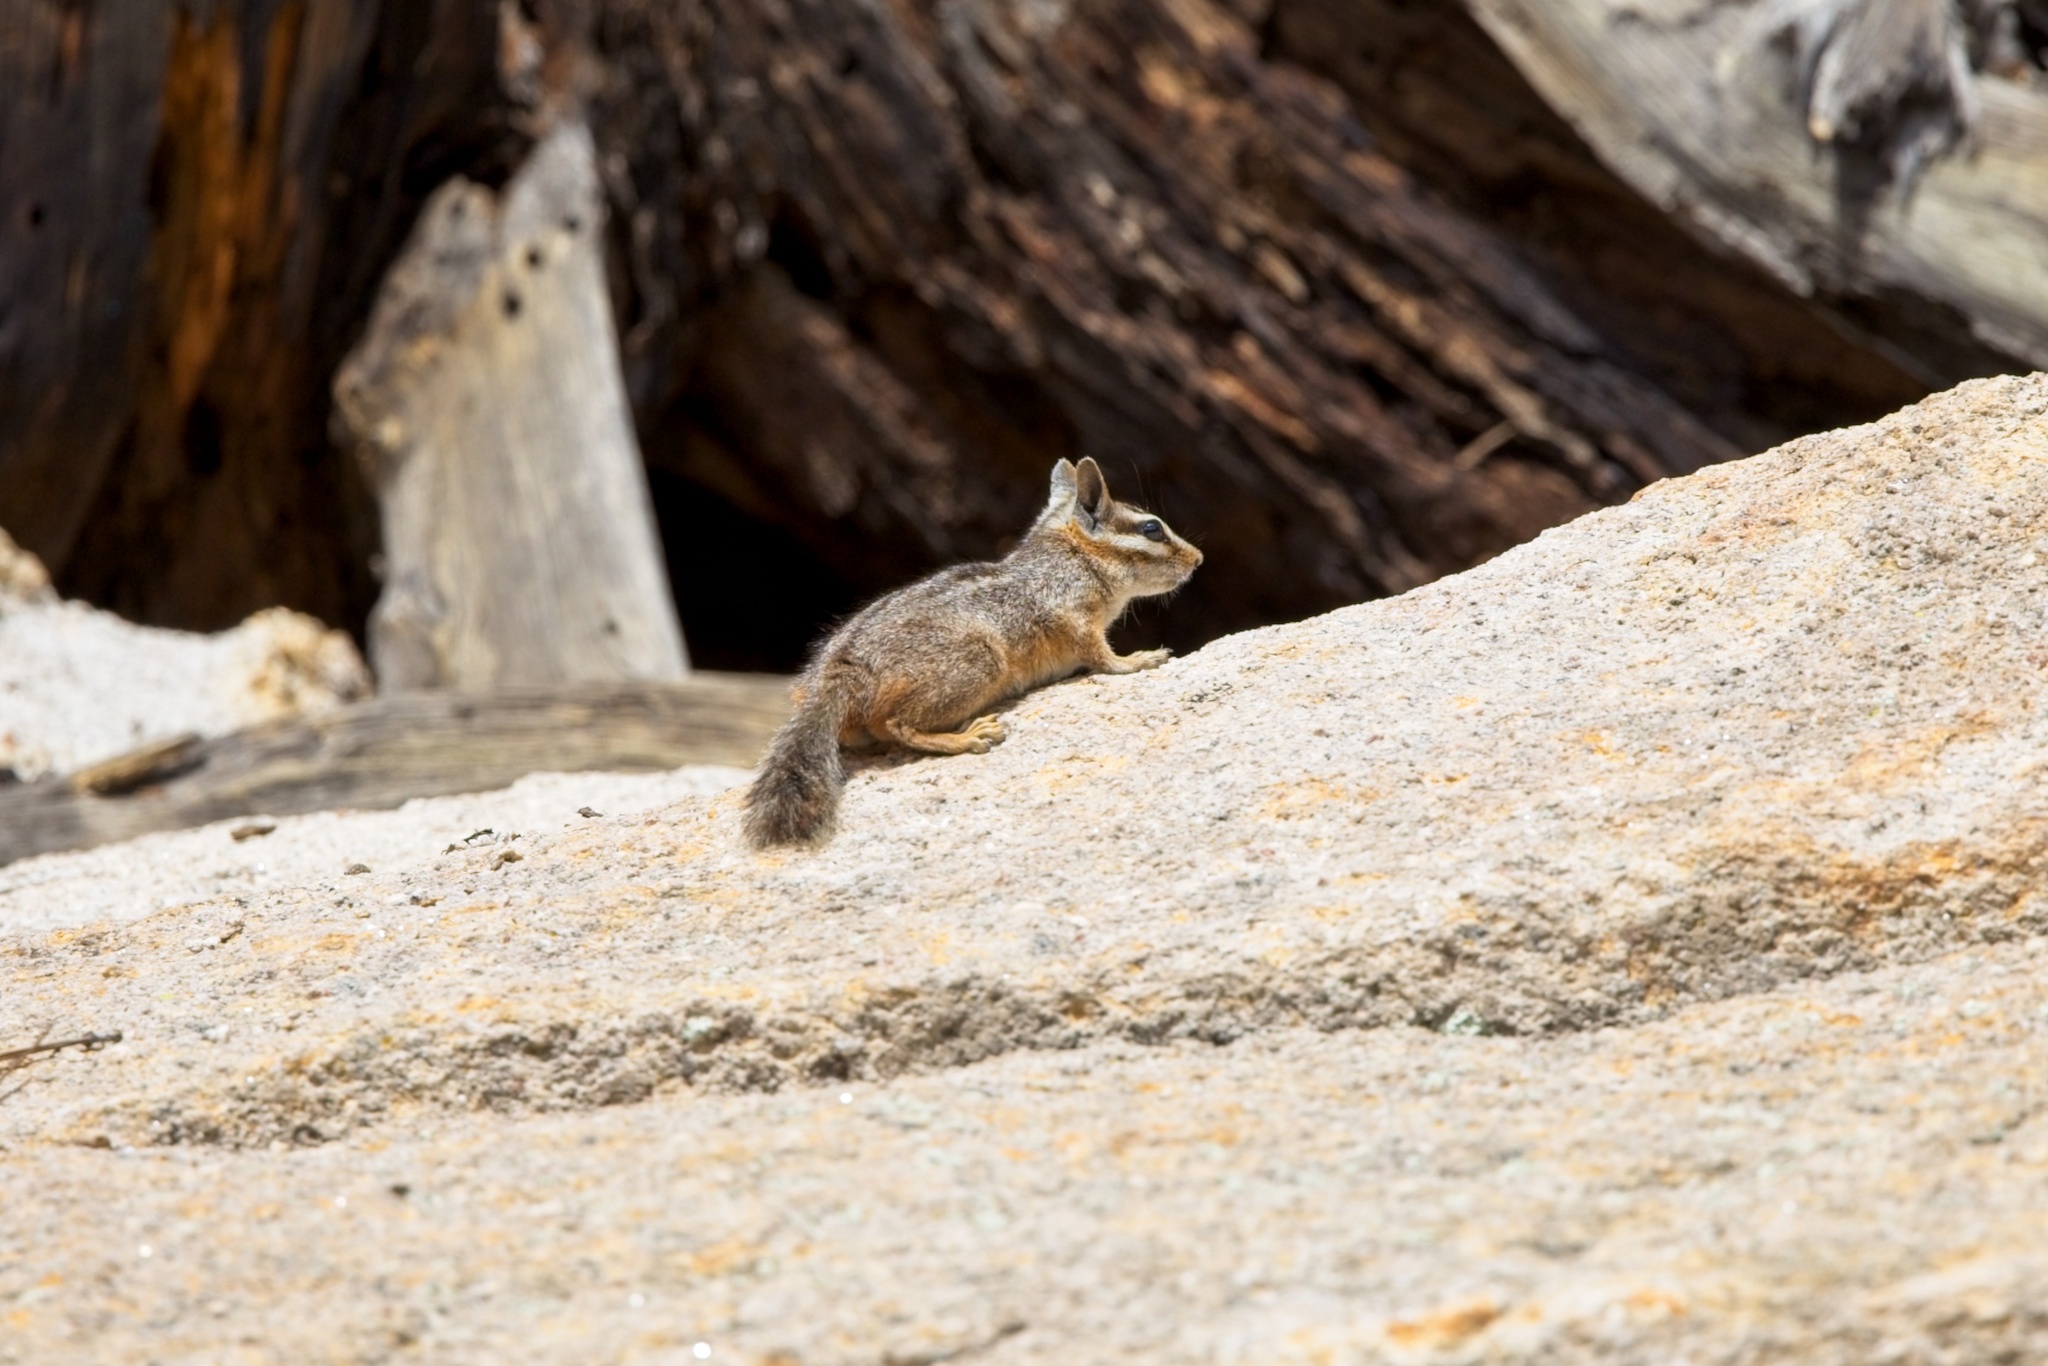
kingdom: Animalia
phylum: Chordata
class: Mammalia
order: Rodentia
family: Sciuridae
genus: Tamias
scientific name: Tamias dorsalis
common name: Cliff chipmunk
